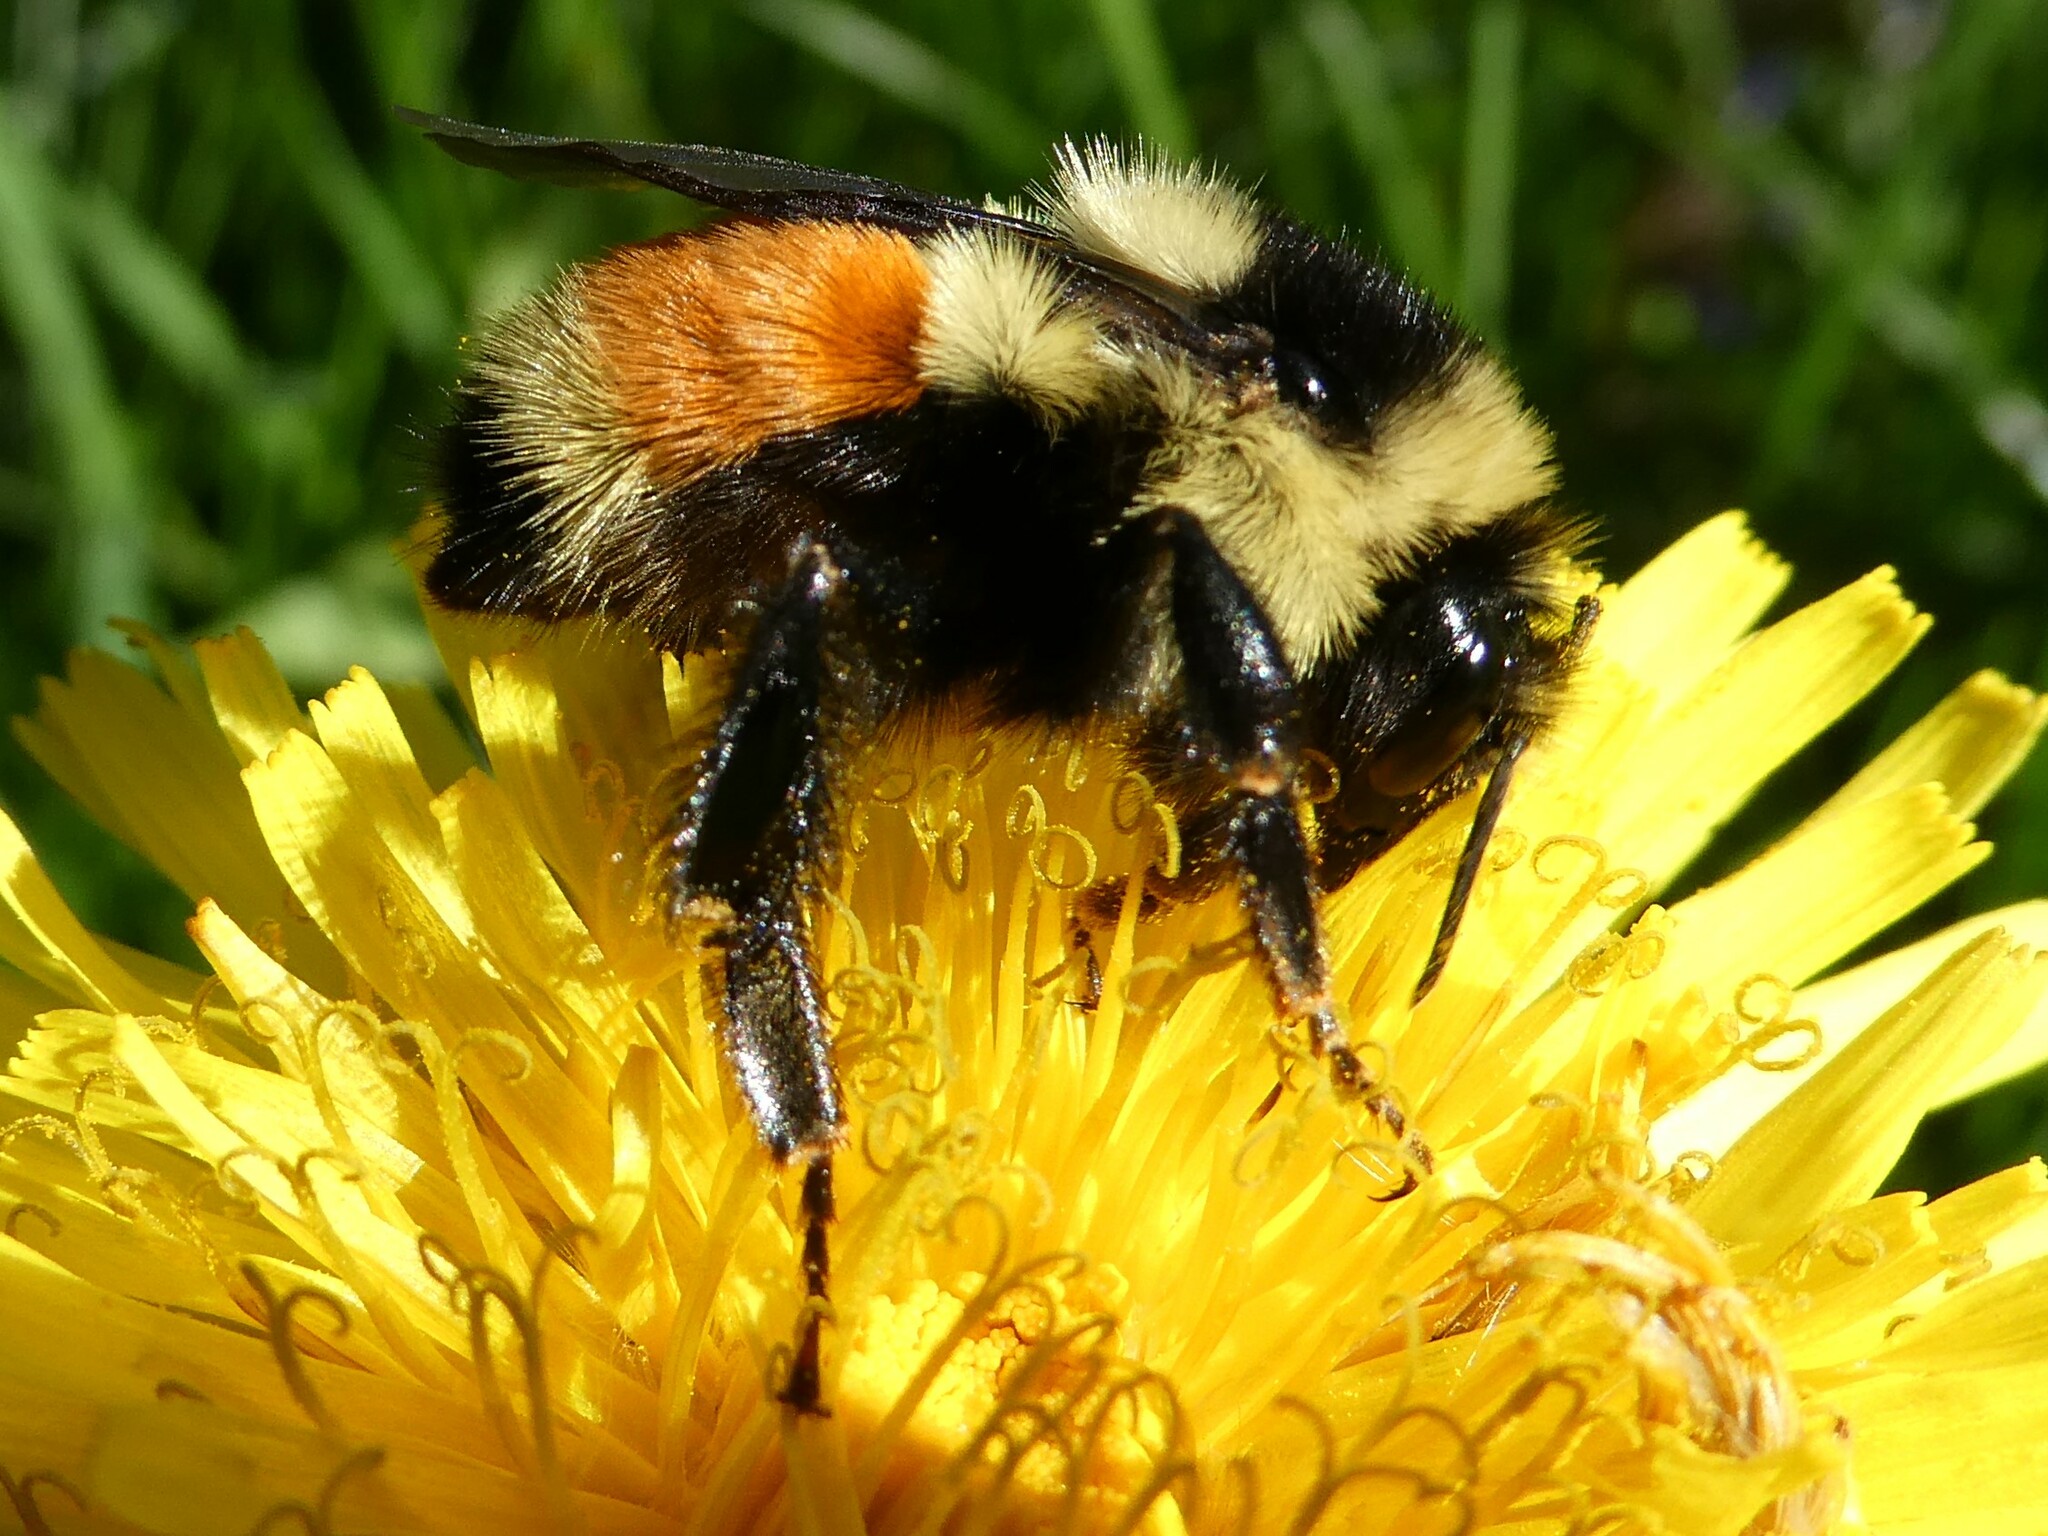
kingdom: Animalia
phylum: Arthropoda
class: Insecta
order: Hymenoptera
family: Apidae
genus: Bombus
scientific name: Bombus ternarius
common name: Tri-colored bumble bee
